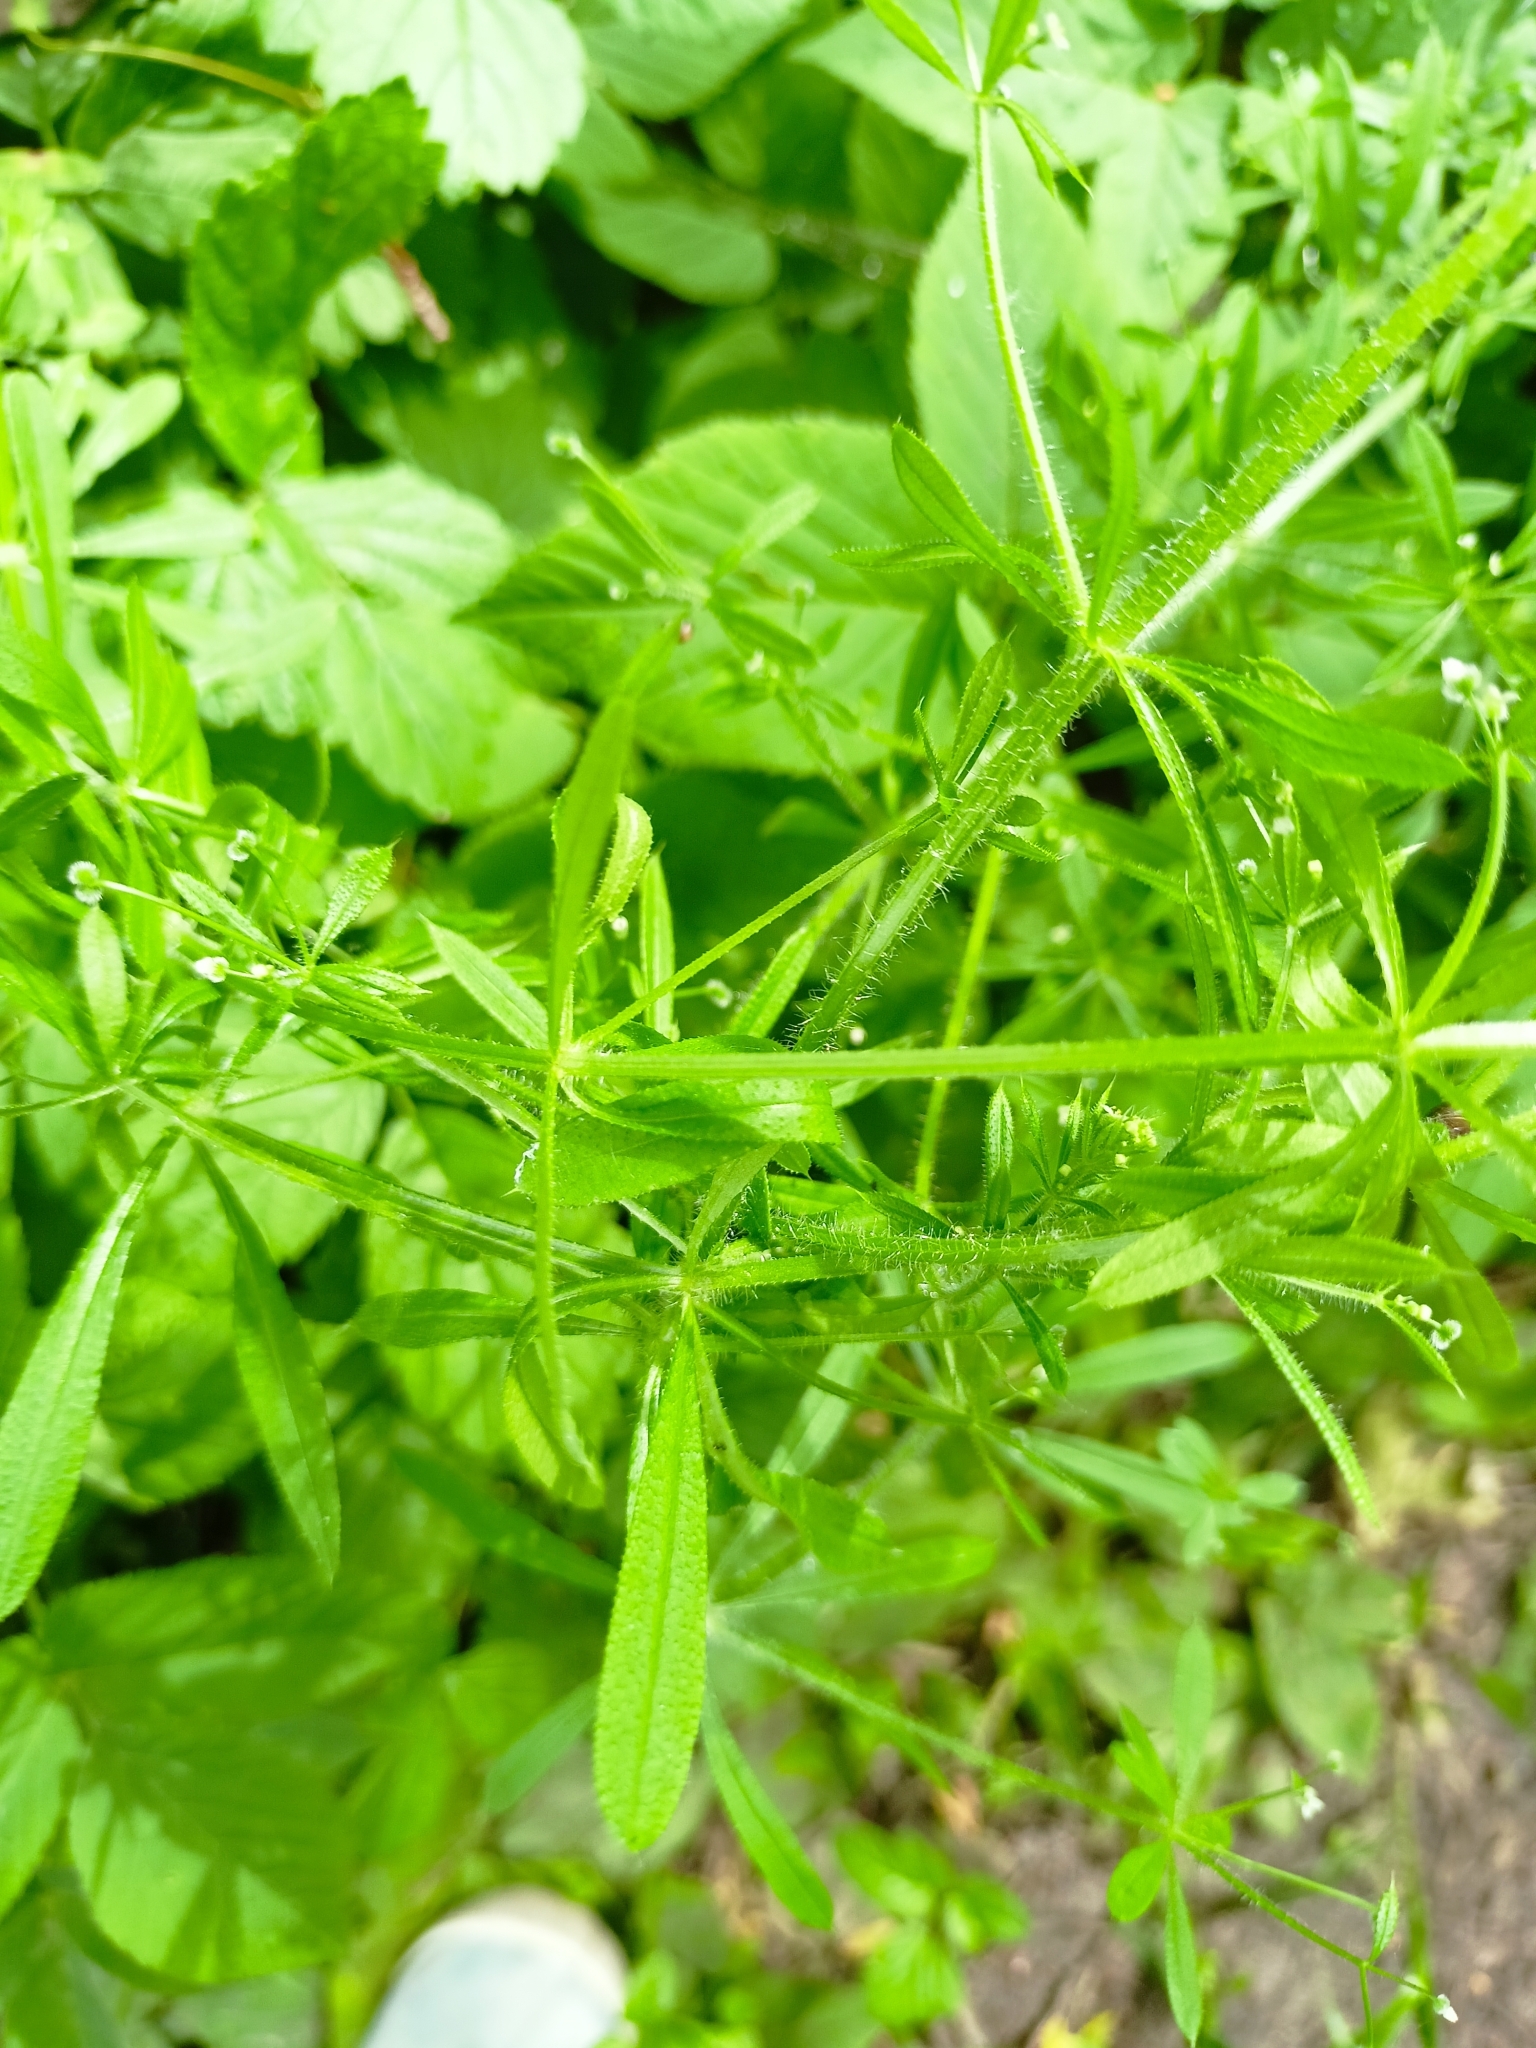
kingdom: Plantae
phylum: Tracheophyta
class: Magnoliopsida
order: Gentianales
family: Rubiaceae
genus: Galium
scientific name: Galium aparine
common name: Cleavers
